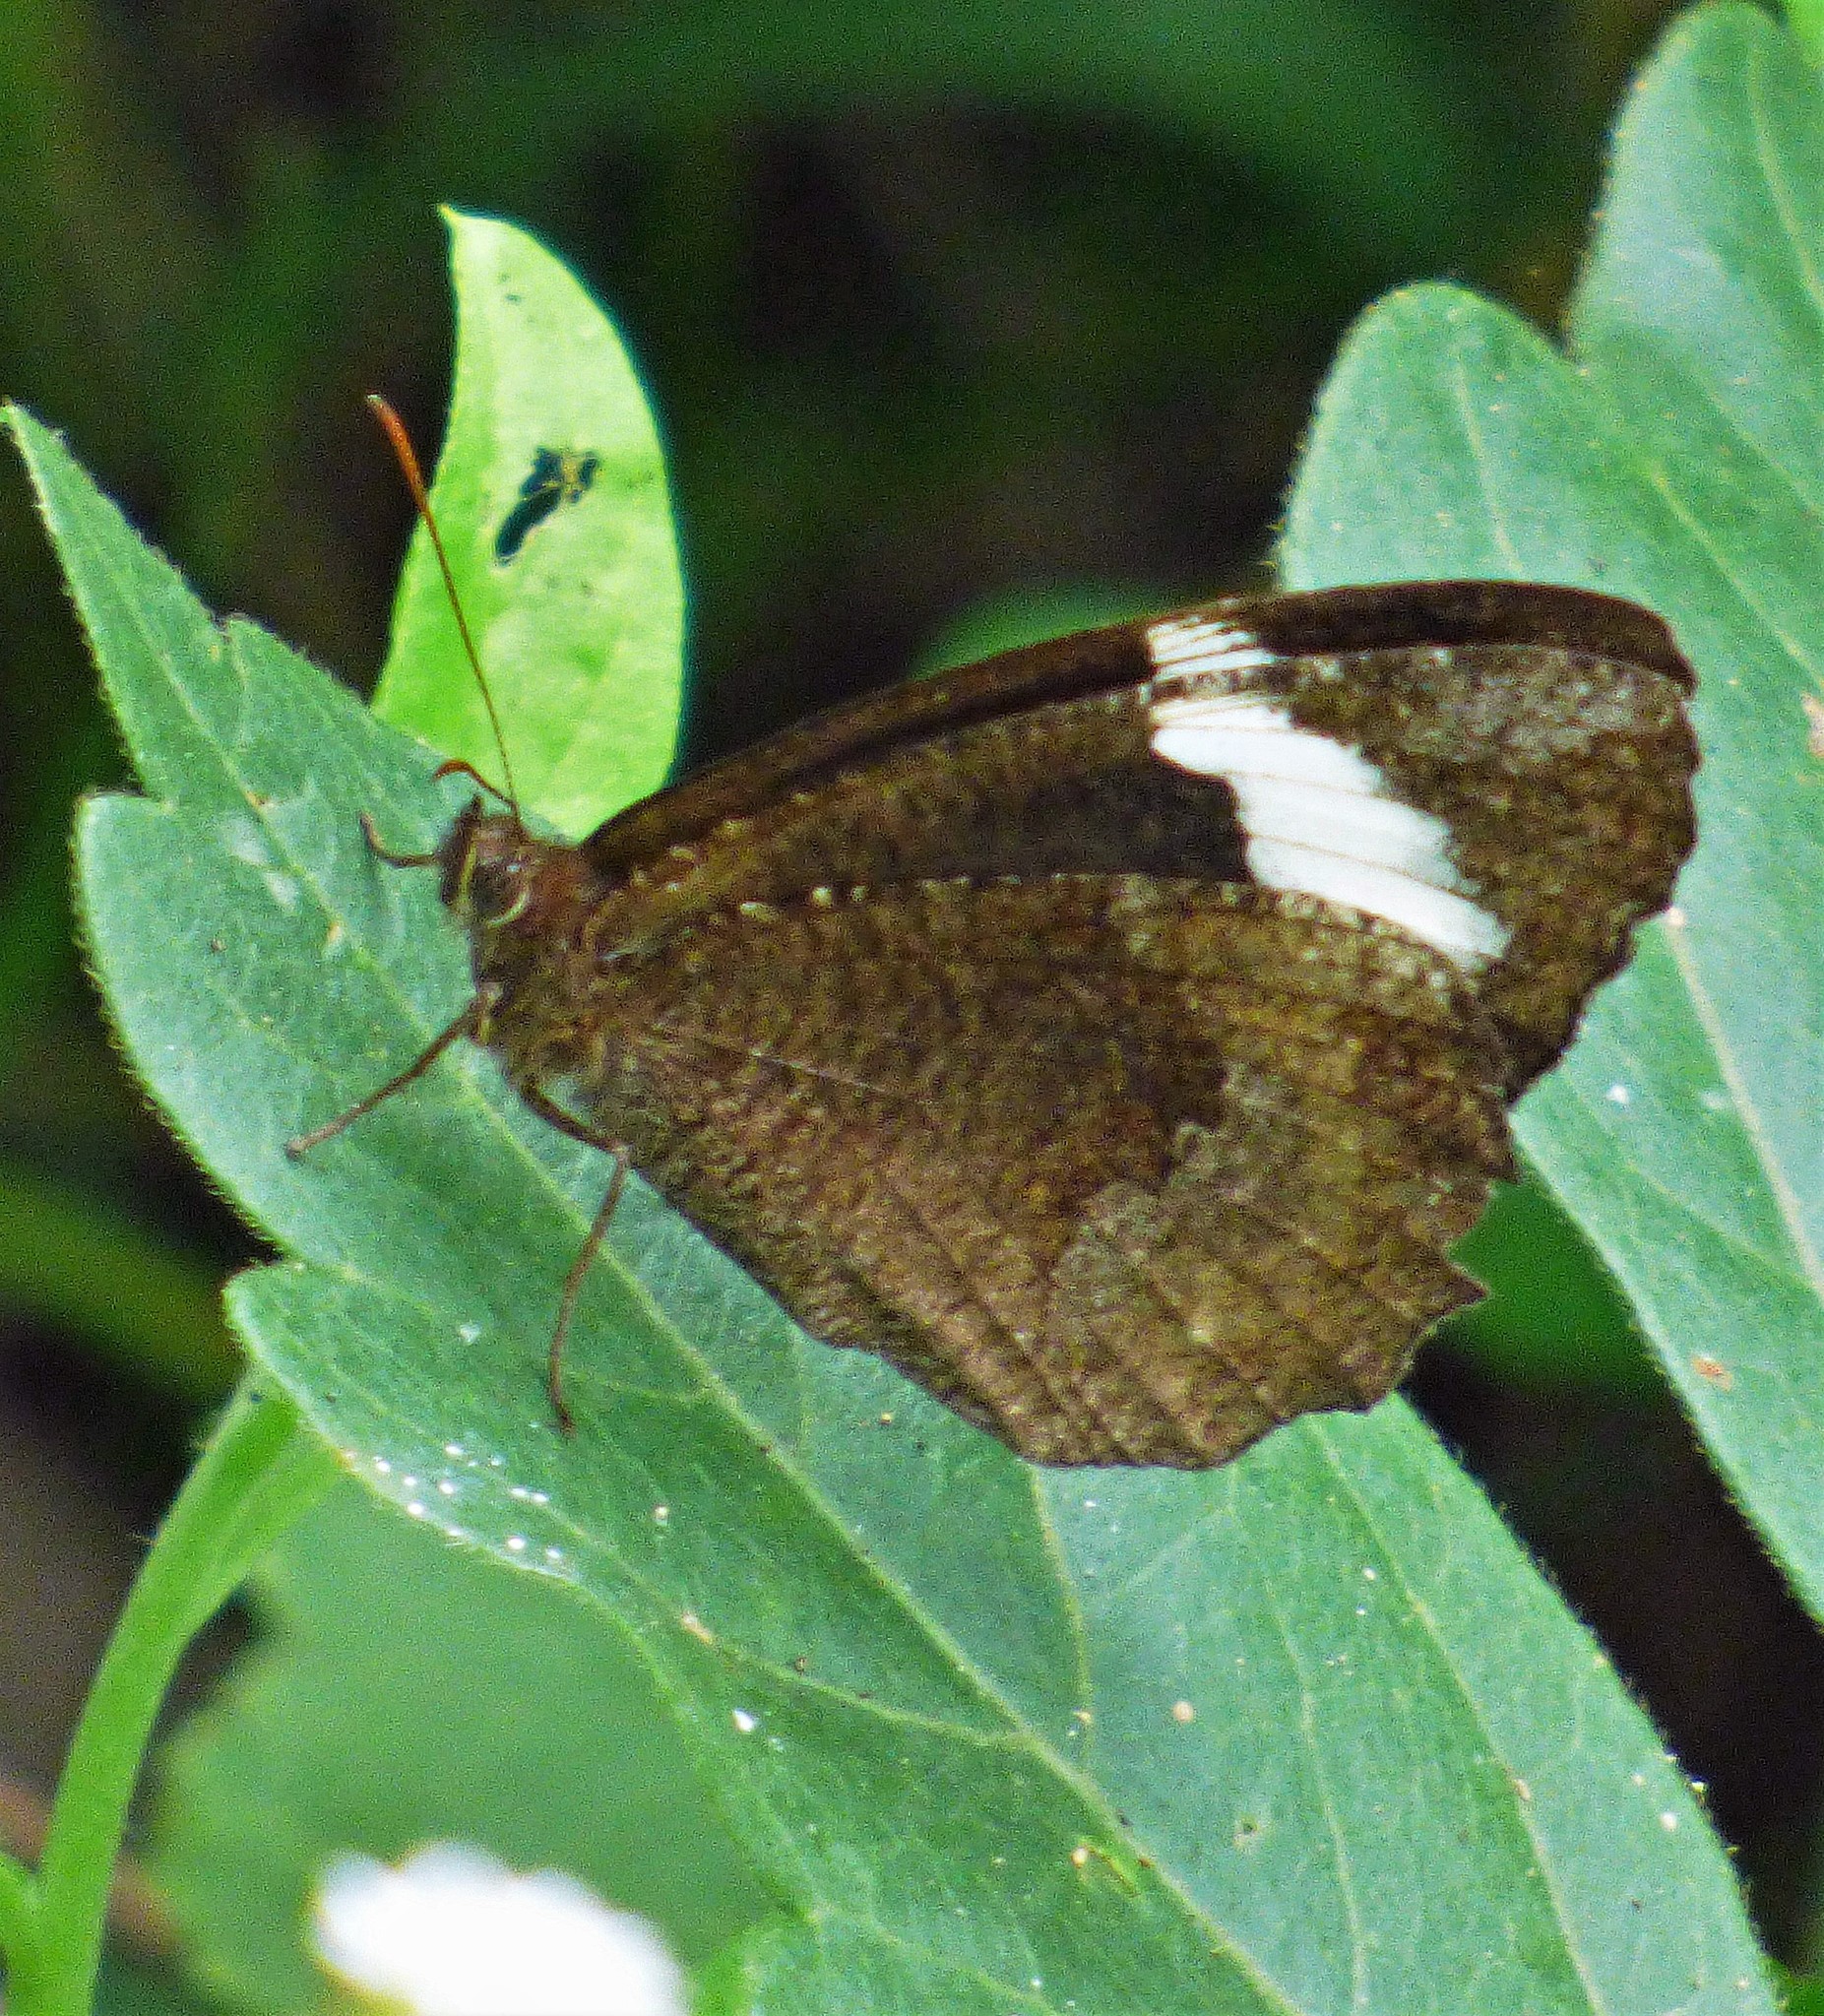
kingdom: Animalia
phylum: Arthropoda
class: Insecta
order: Lepidoptera
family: Nymphalidae
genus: Pedaliodes
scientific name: Pedaliodes porina
